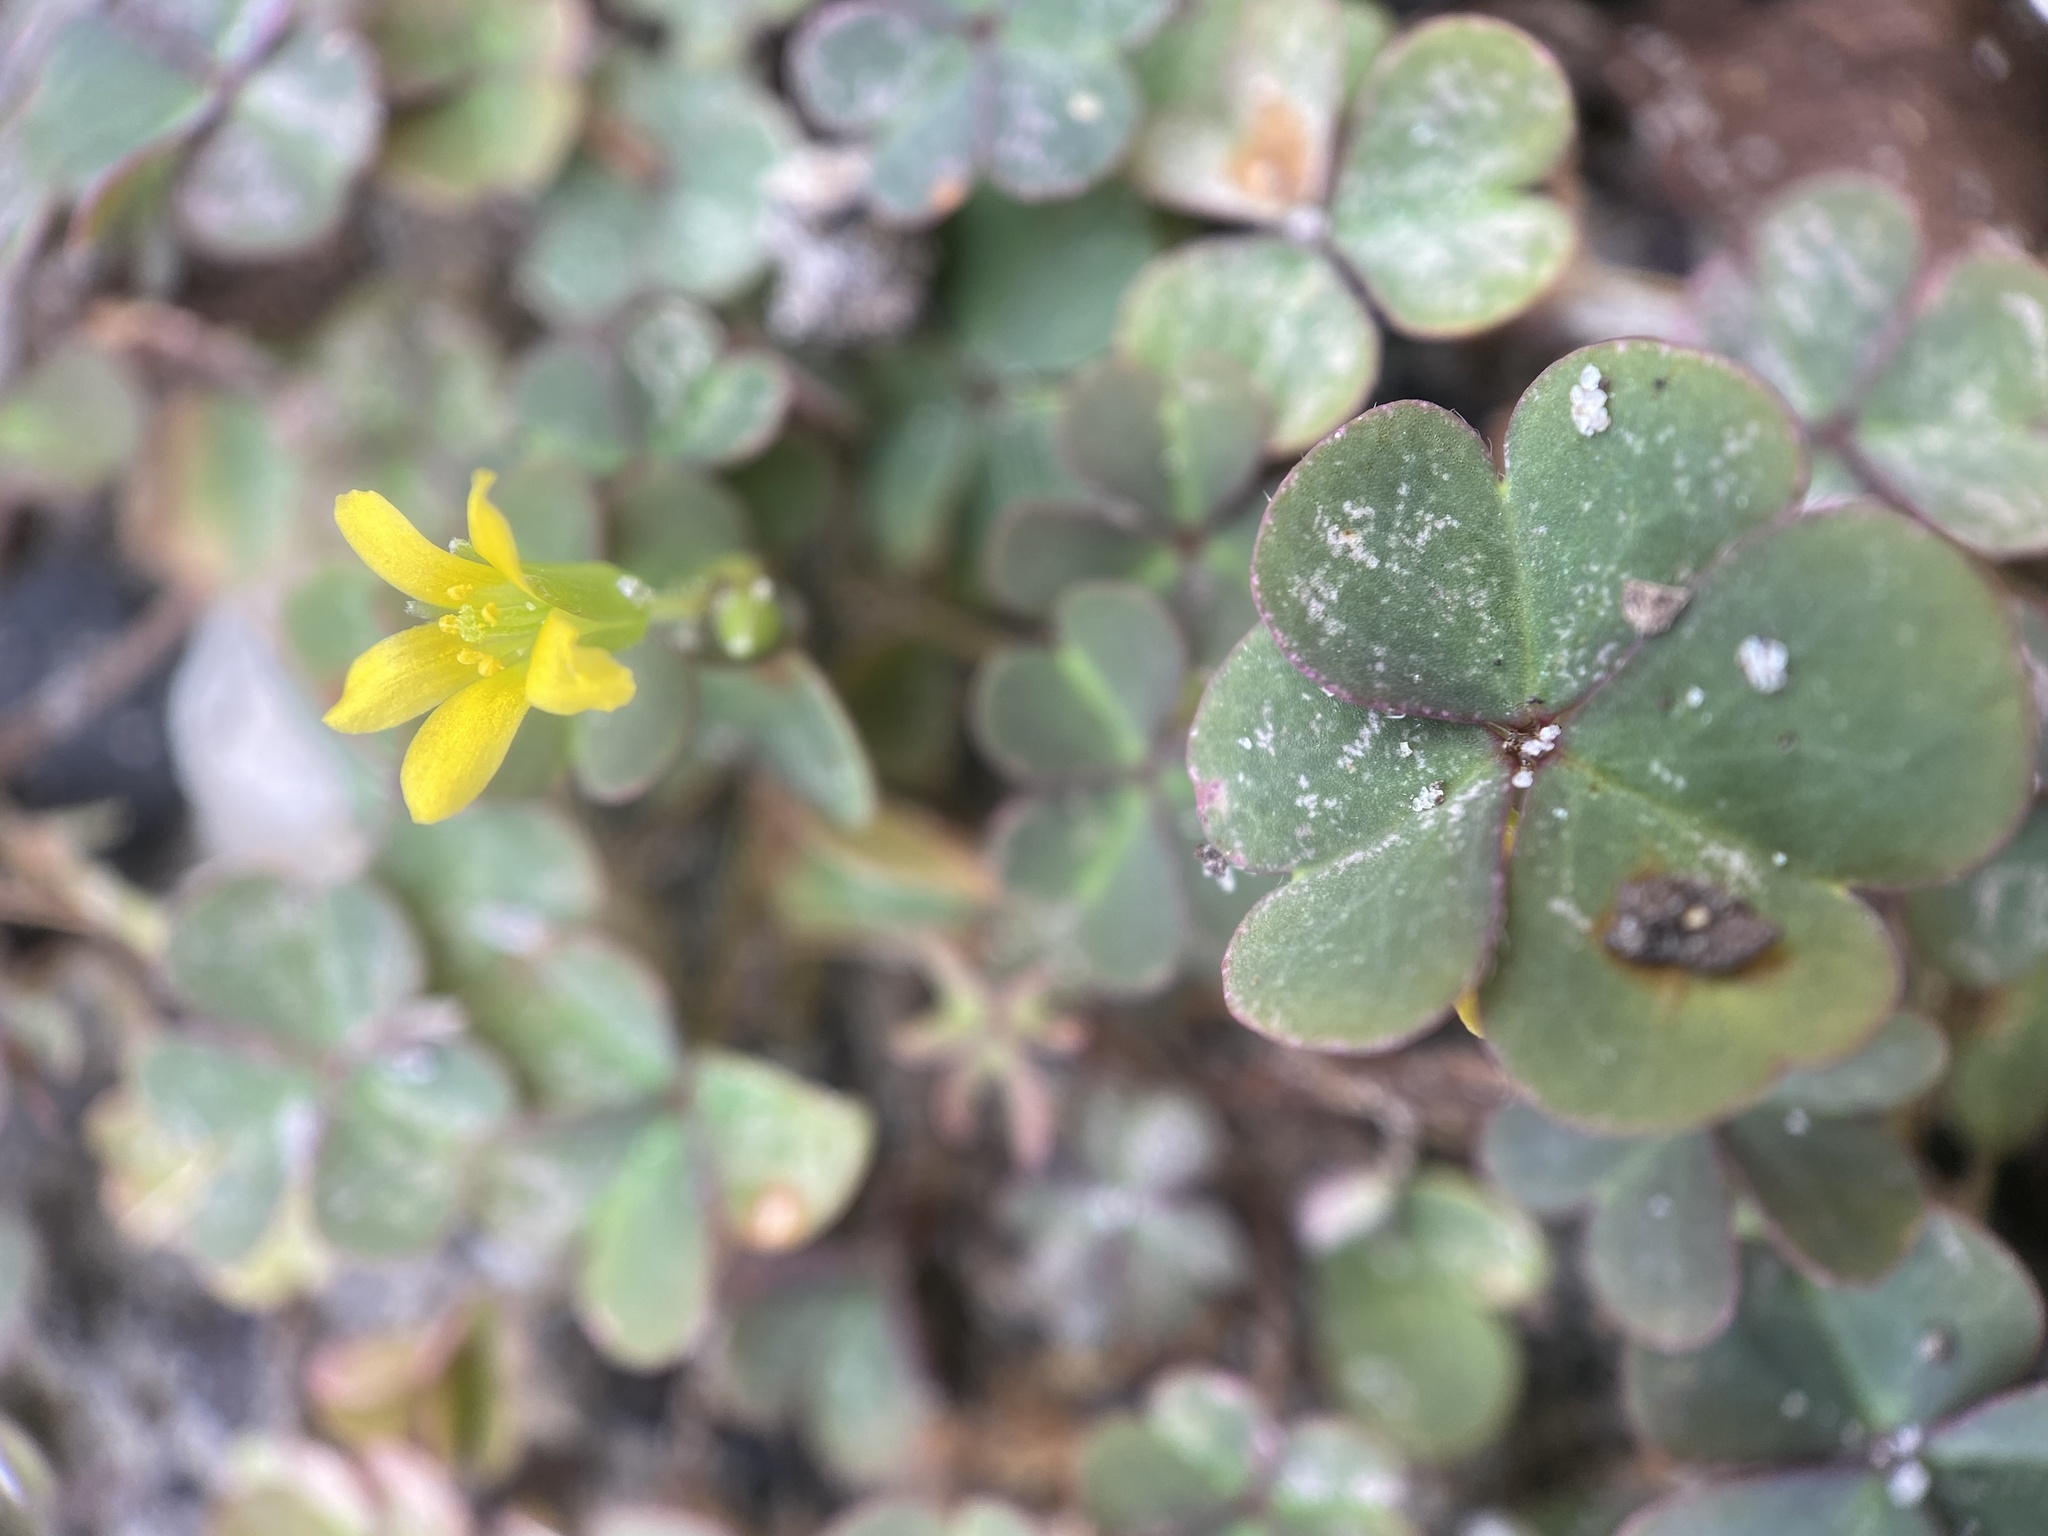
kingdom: Plantae
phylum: Tracheophyta
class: Magnoliopsida
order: Oxalidales
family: Oxalidaceae
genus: Oxalis
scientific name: Oxalis corniculata
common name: Procumbent yellow-sorrel
